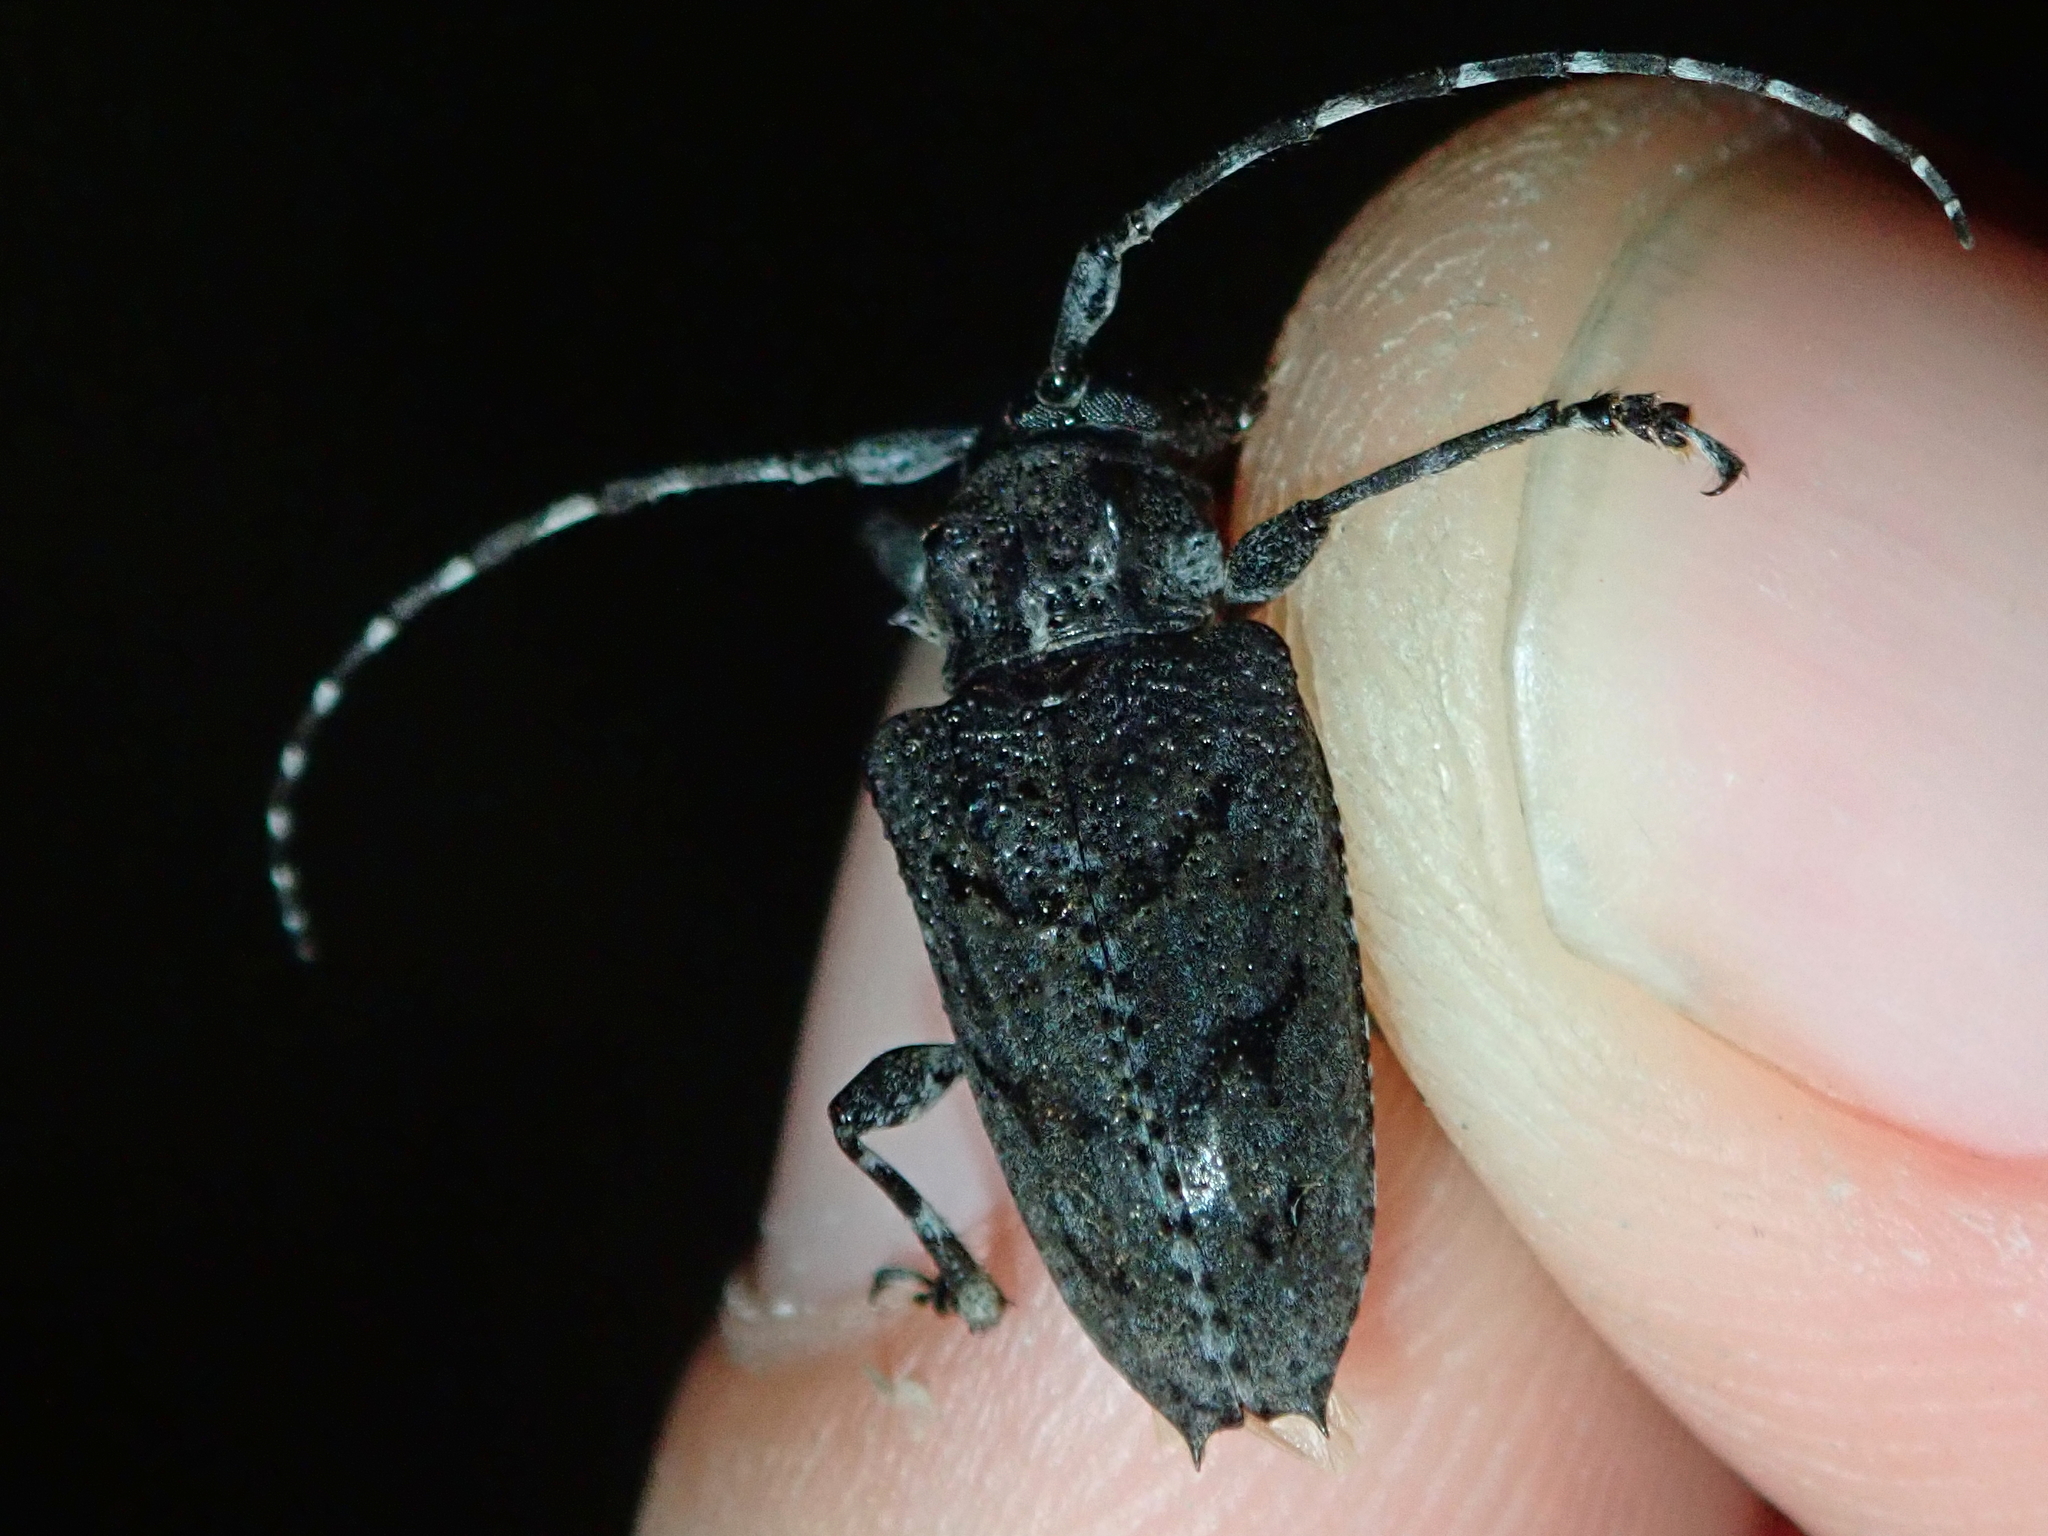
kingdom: Animalia
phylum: Arthropoda
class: Insecta
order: Coleoptera
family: Cerambycidae
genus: Psapharochrus
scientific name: Psapharochrus nigricans
